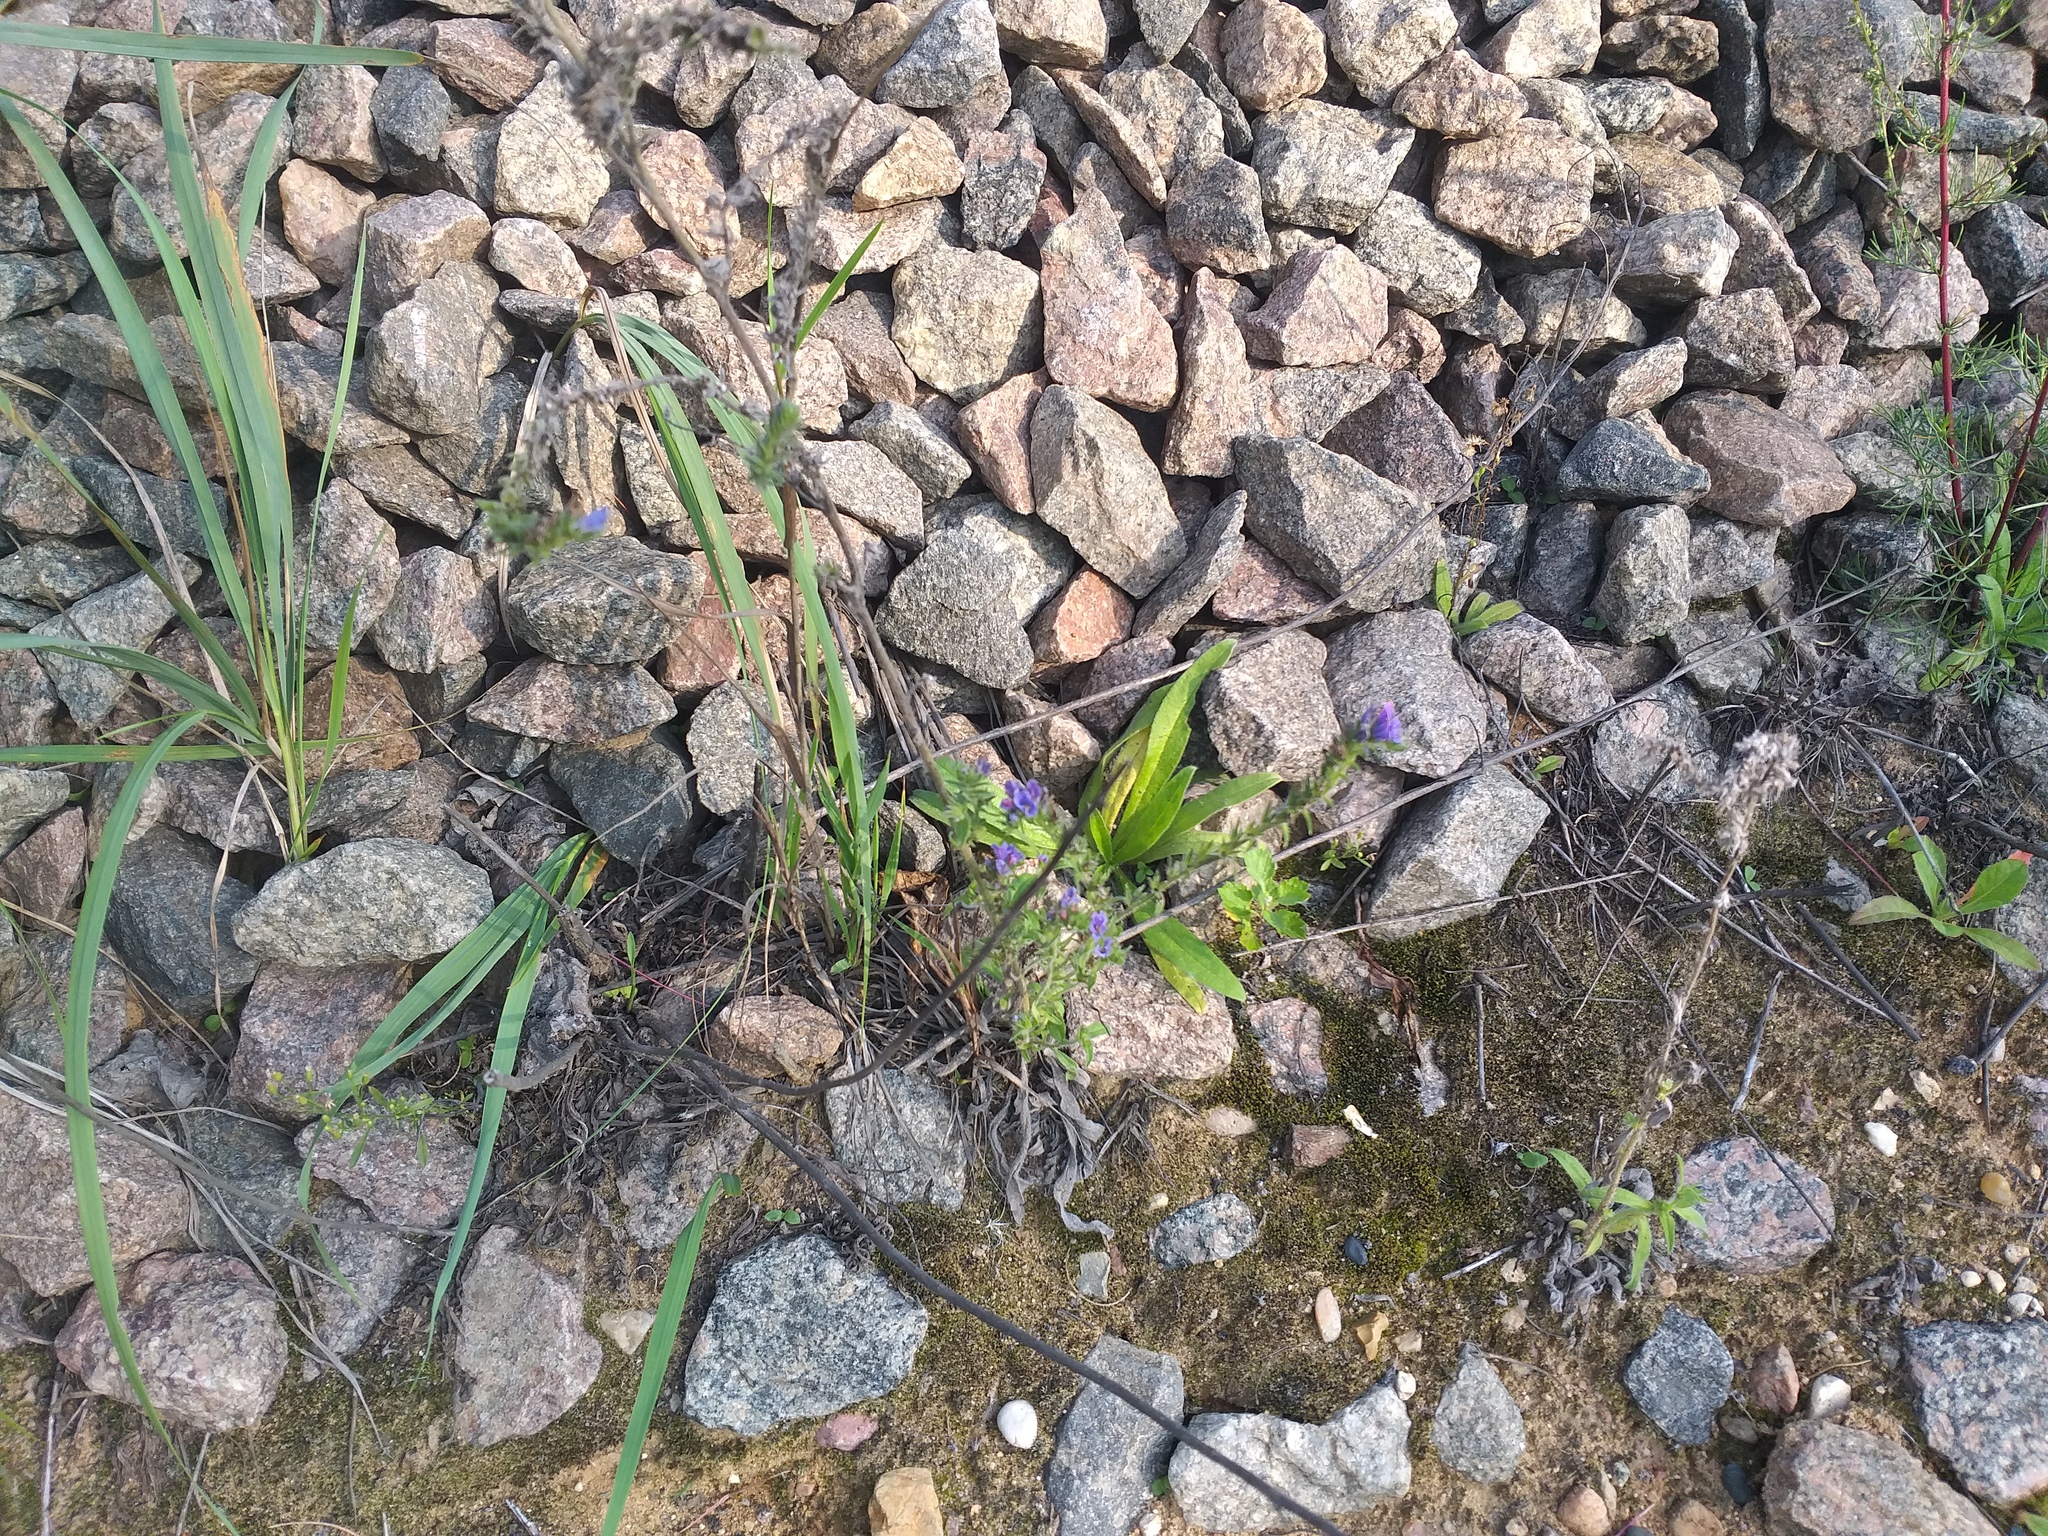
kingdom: Plantae
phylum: Tracheophyta
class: Magnoliopsida
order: Boraginales
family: Boraginaceae
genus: Echium
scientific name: Echium vulgare
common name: Common viper's bugloss
